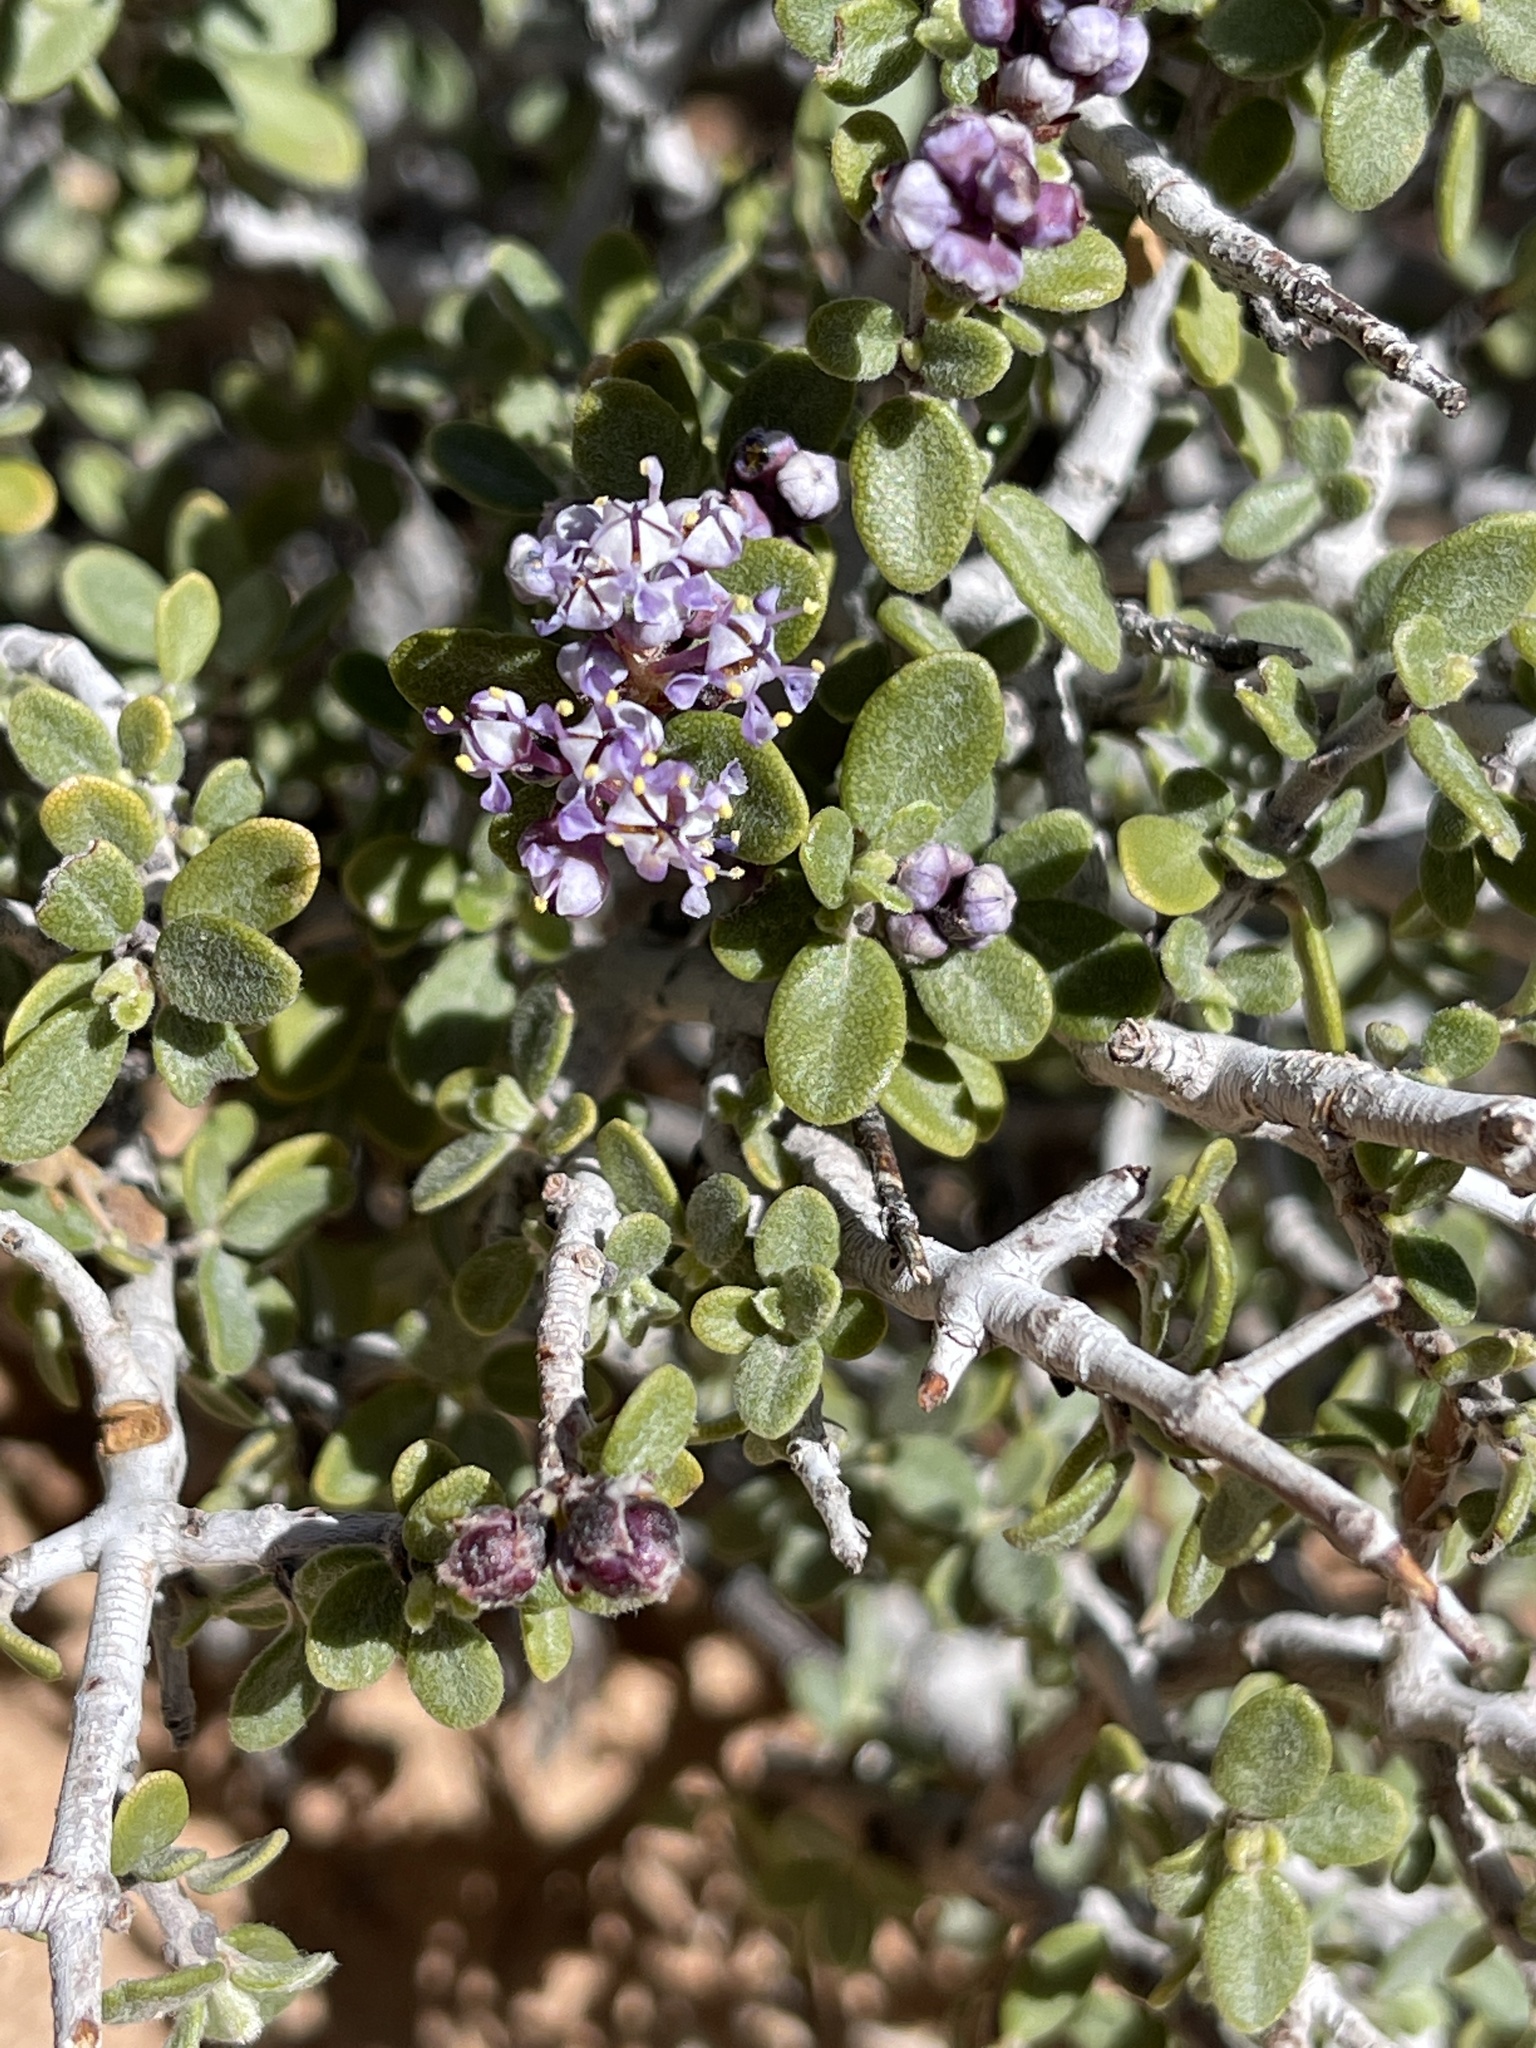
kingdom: Plantae
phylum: Tracheophyta
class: Magnoliopsida
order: Rosales
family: Rhamnaceae
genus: Ceanothus
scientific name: Ceanothus pauciflorus
